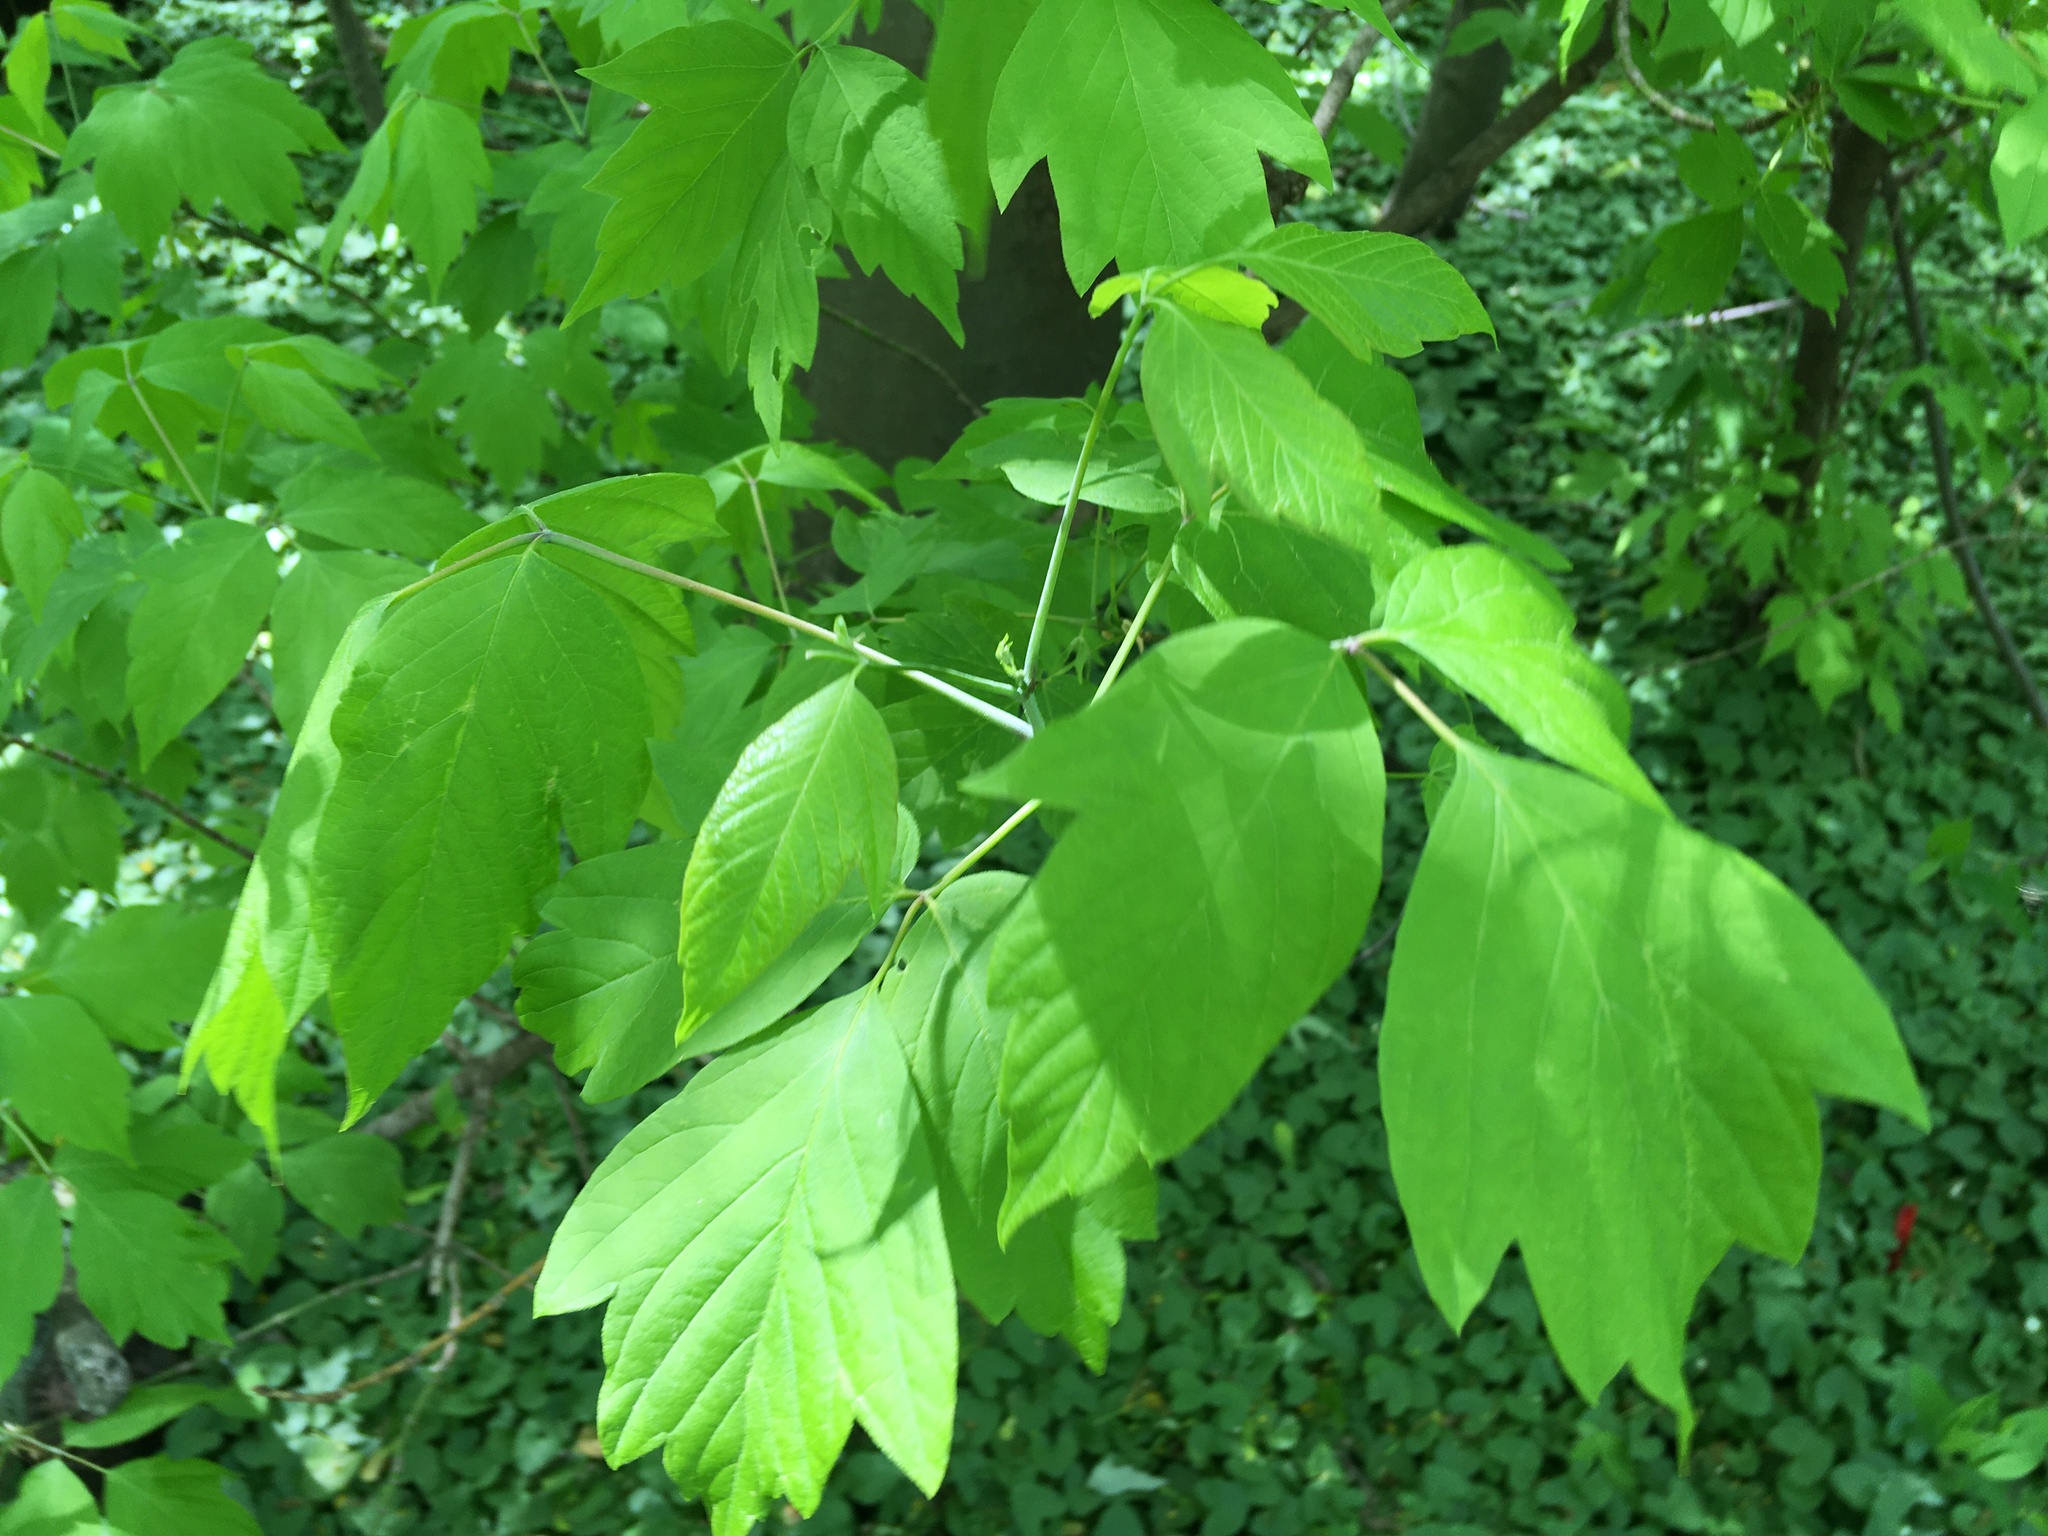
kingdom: Plantae
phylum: Tracheophyta
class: Magnoliopsida
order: Sapindales
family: Sapindaceae
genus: Acer
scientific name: Acer negundo
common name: Ashleaf maple
